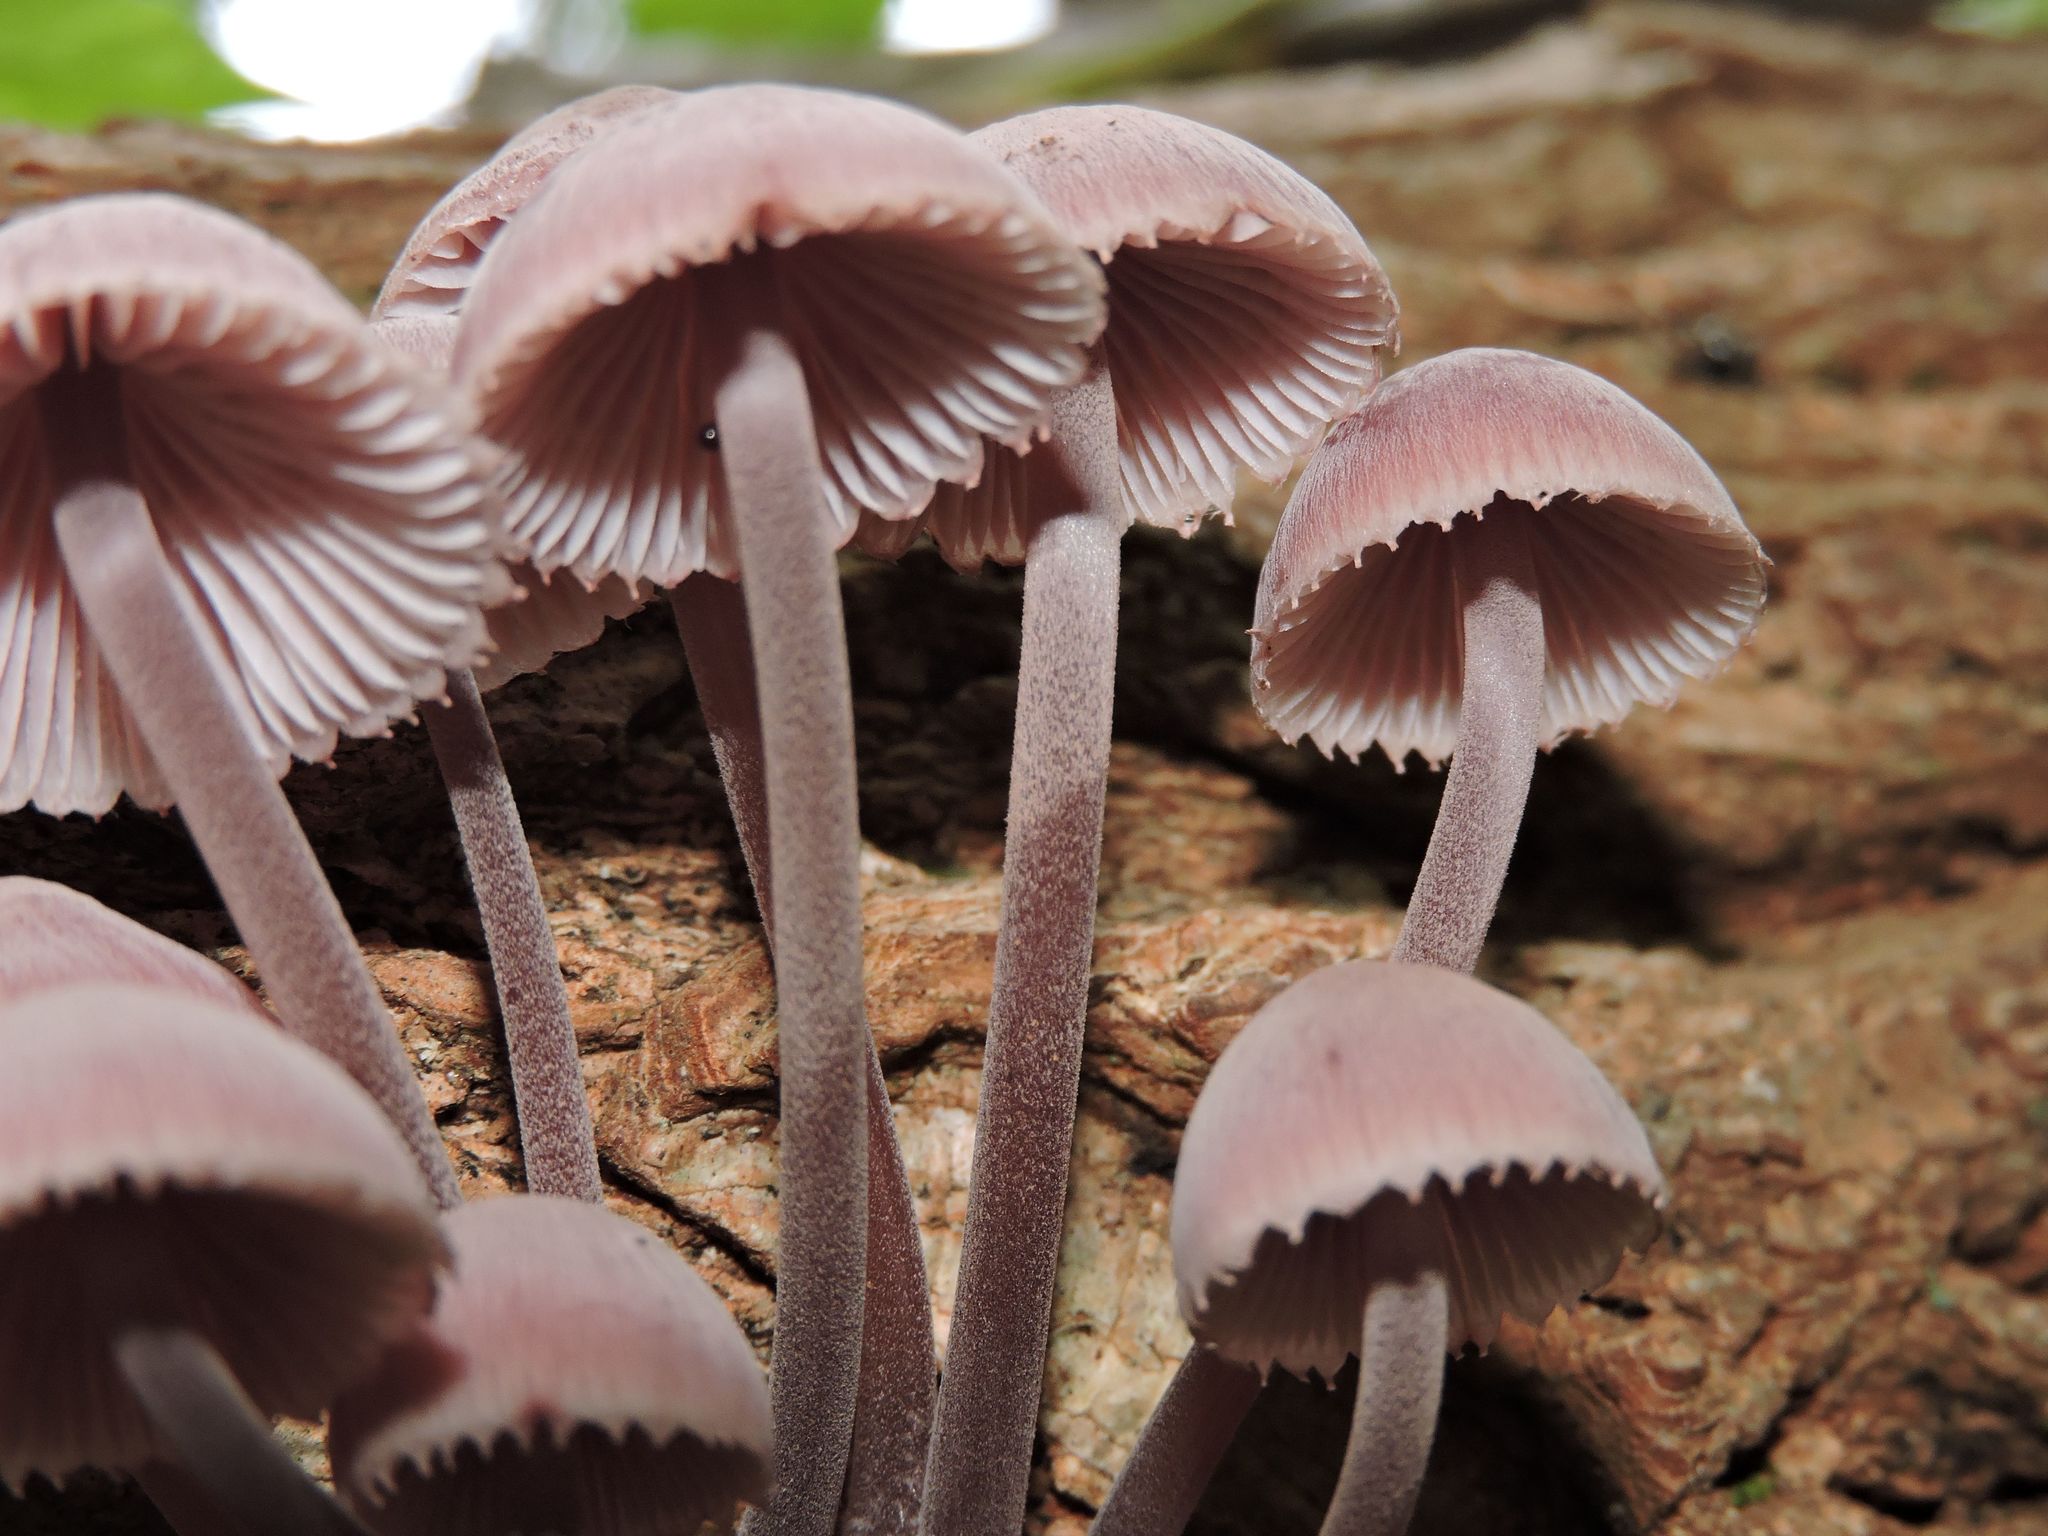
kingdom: Fungi
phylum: Basidiomycota
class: Agaricomycetes
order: Agaricales
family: Mycenaceae
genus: Mycena
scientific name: Mycena haematopus
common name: Burgundydrop bonnet
